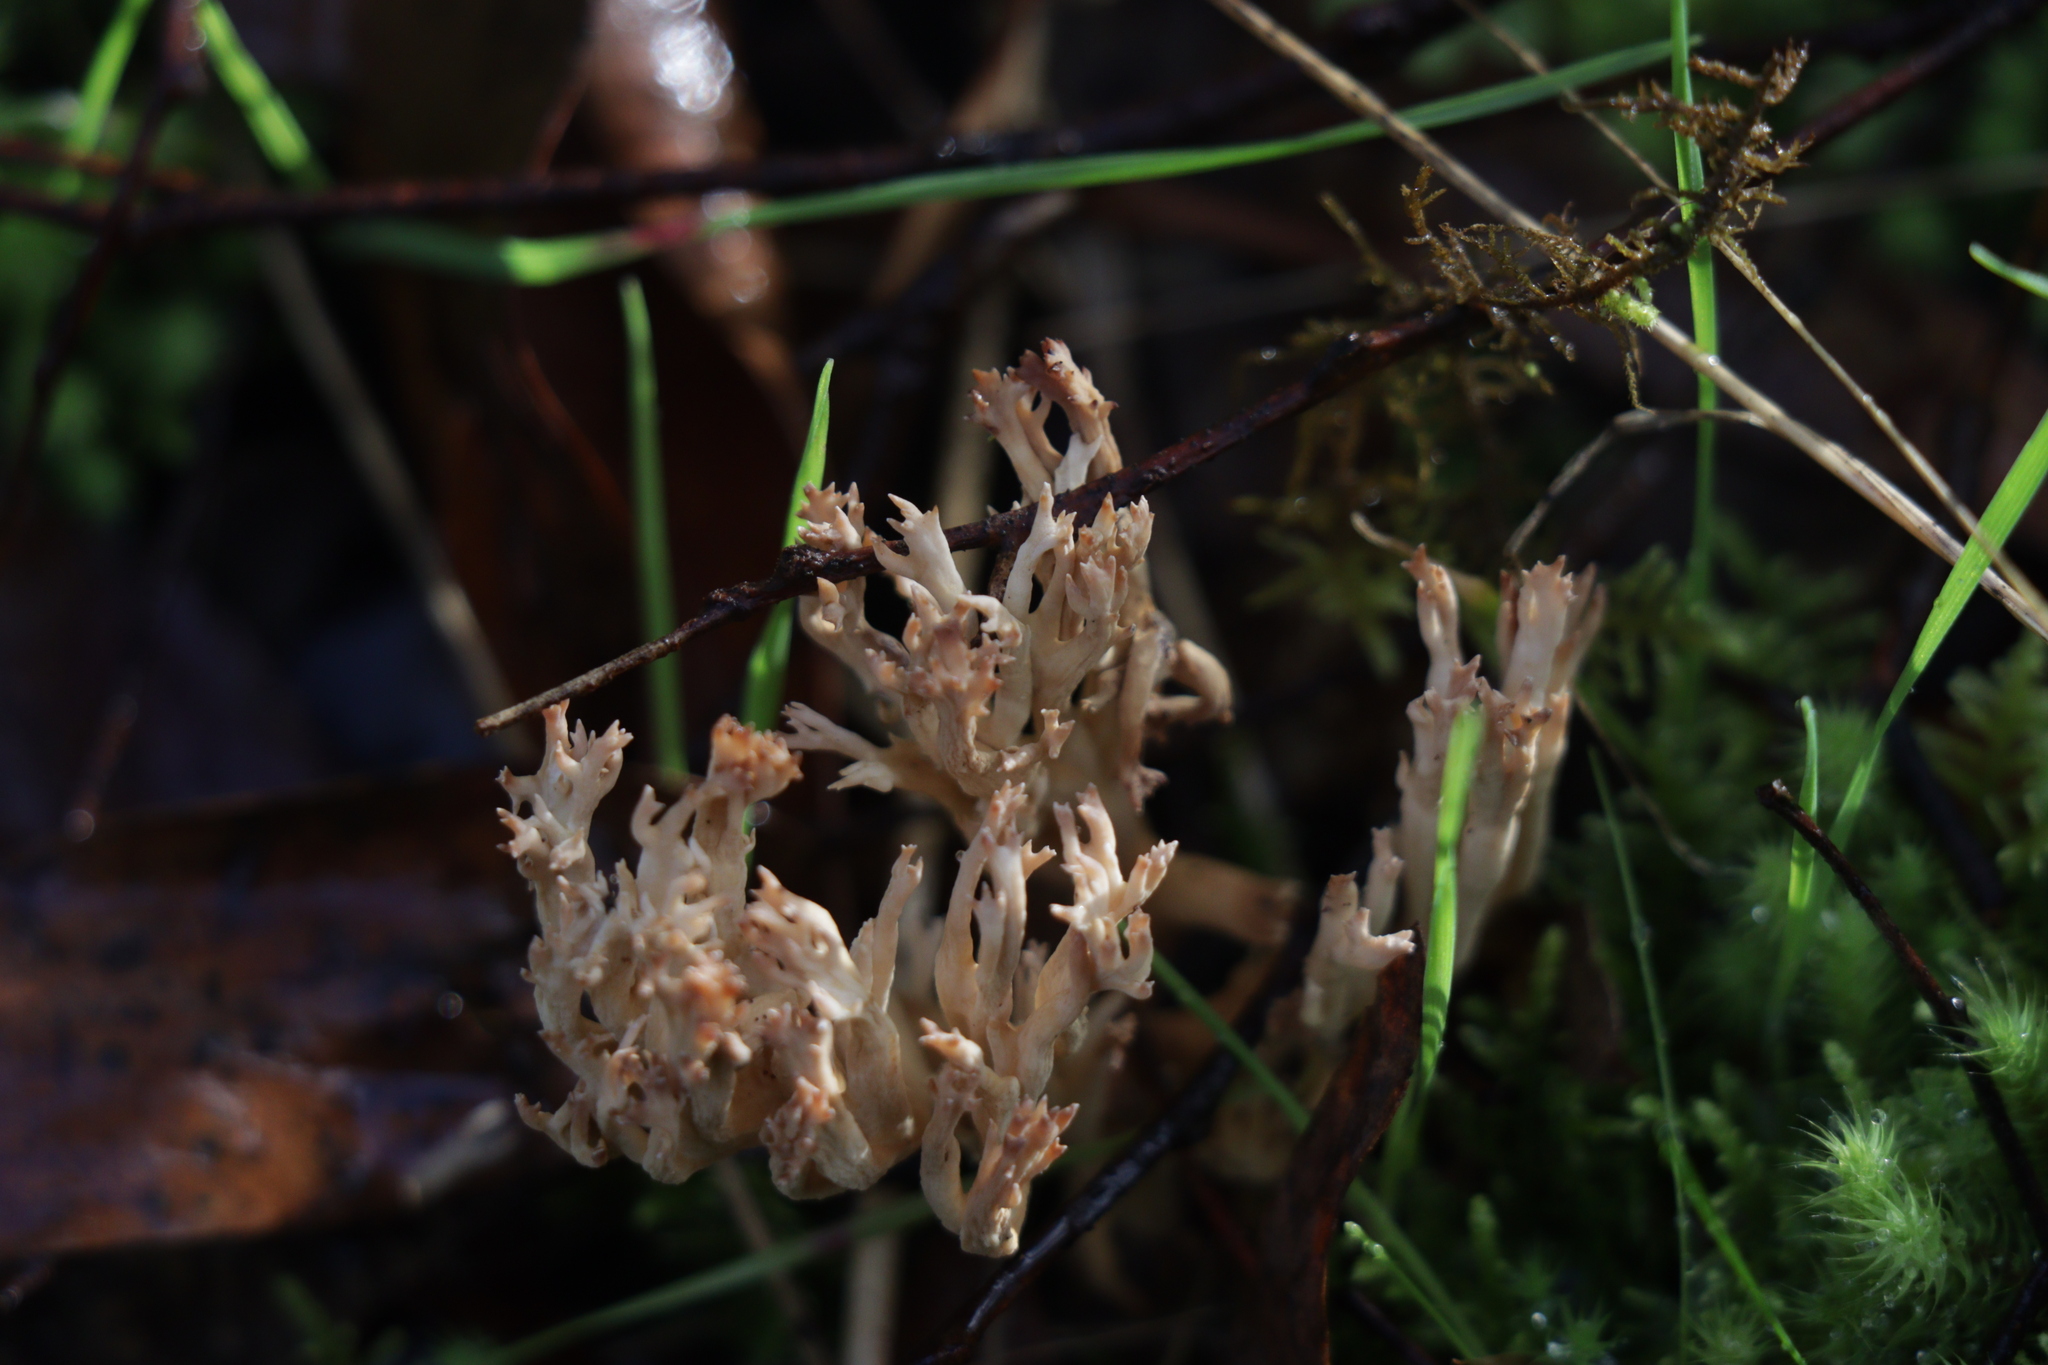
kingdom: Fungi
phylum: Basidiomycota
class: Agaricomycetes
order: Gomphales
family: Gomphaceae
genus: Ramaria
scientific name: Ramaria filicicola
